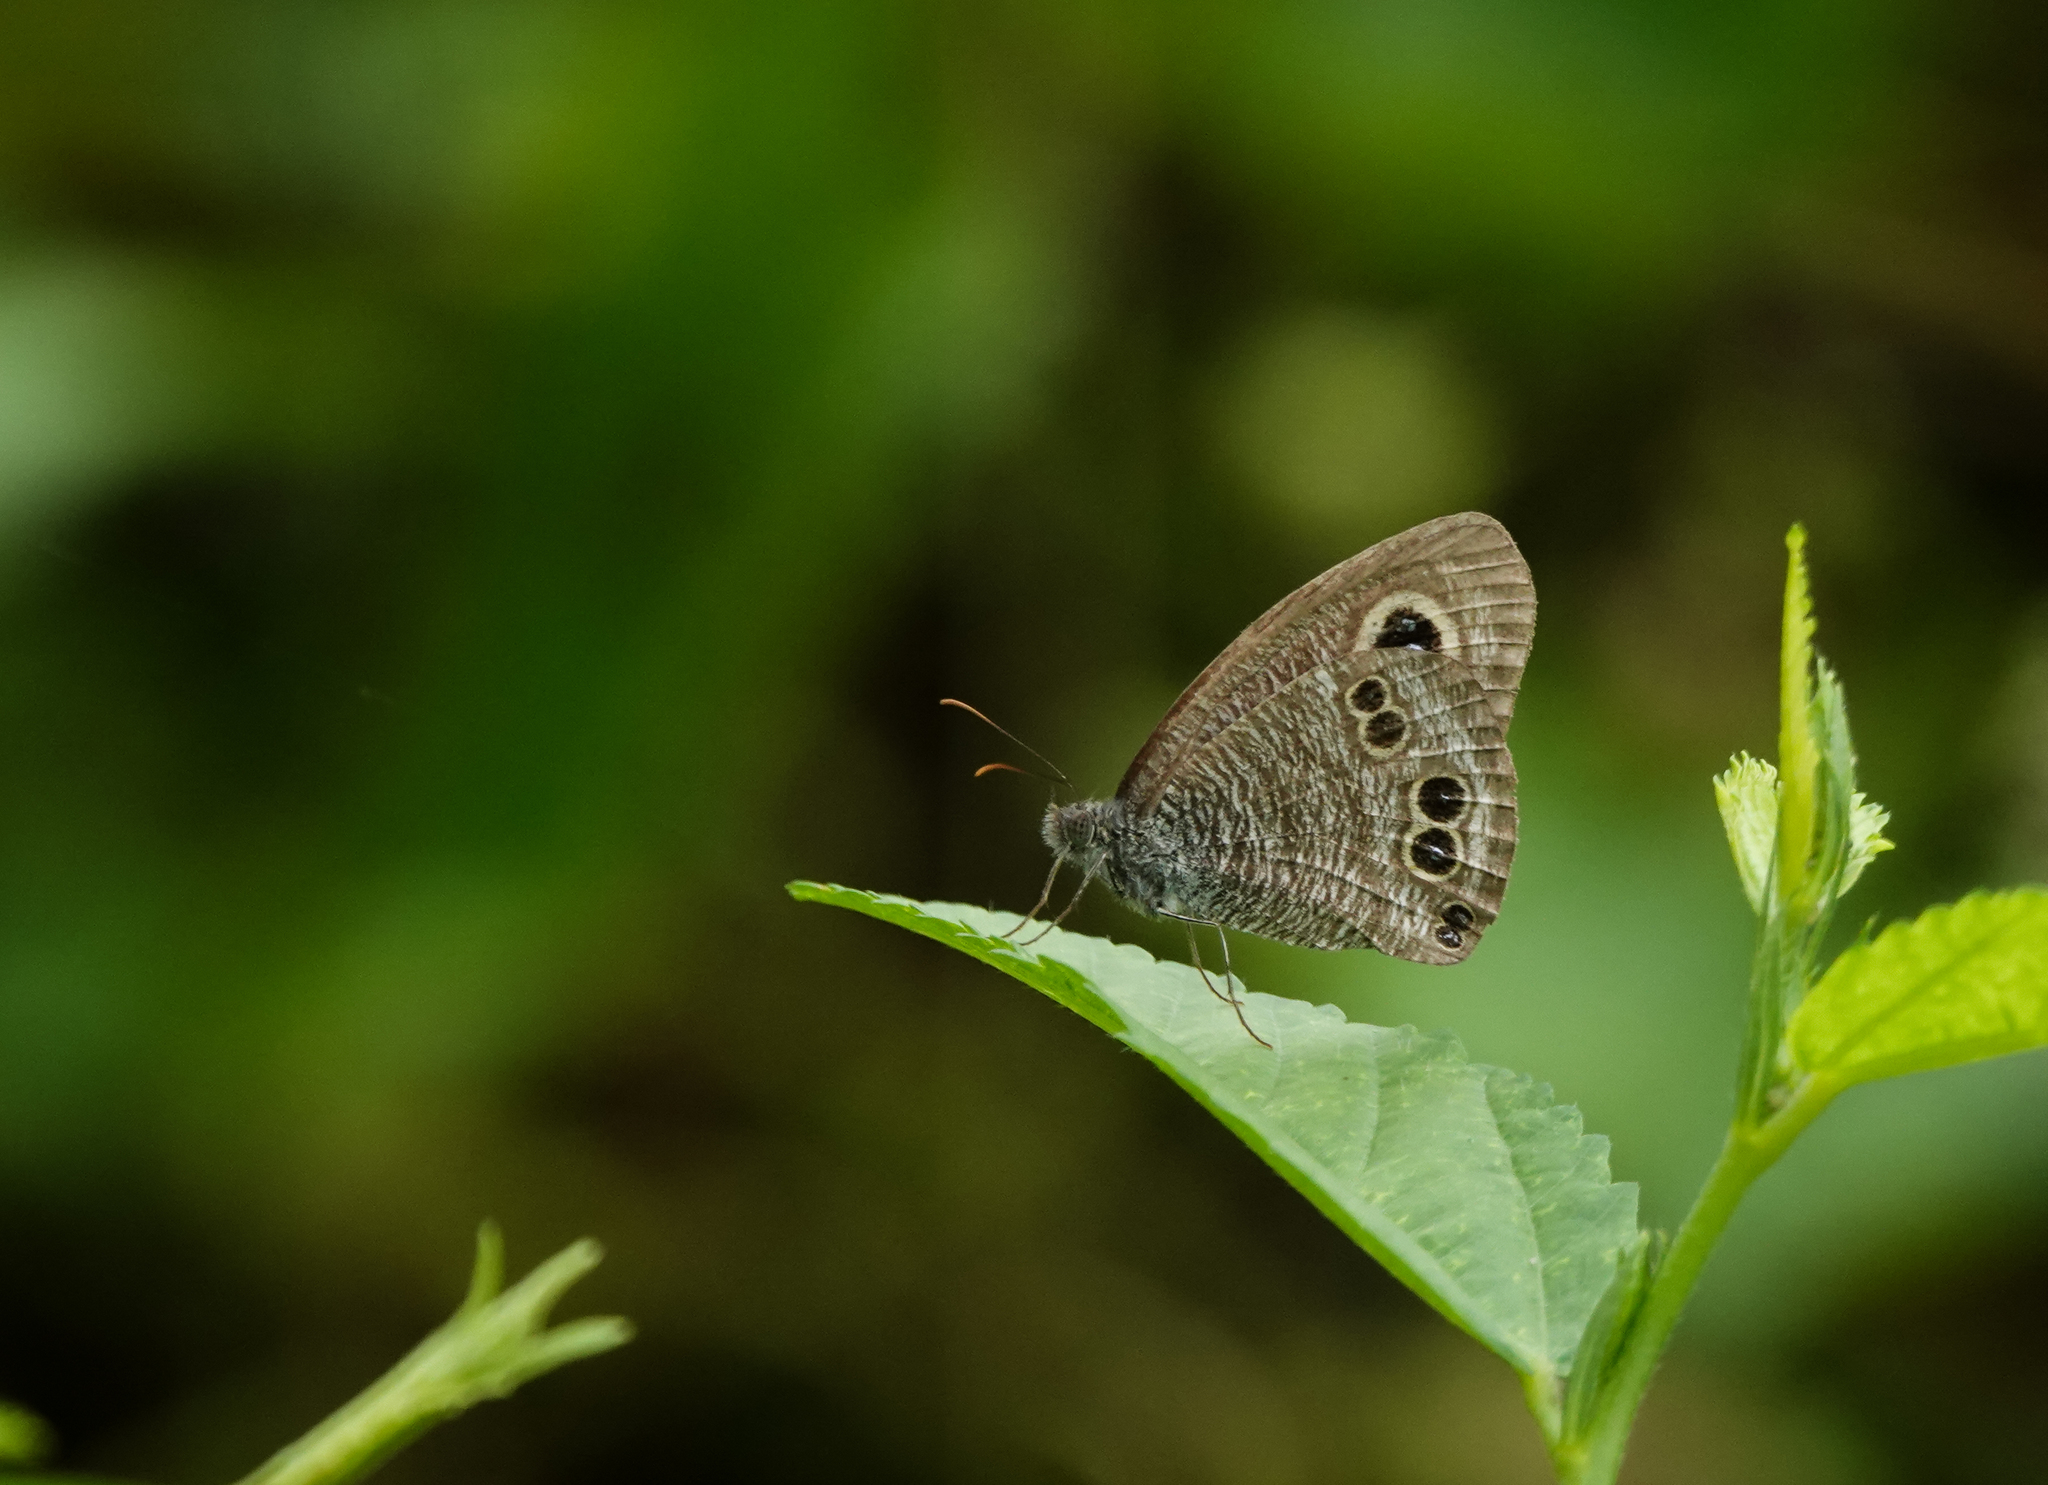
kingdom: Animalia
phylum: Arthropoda
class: Insecta
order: Lepidoptera
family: Nymphalidae
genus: Ypthima
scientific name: Ypthima baldus
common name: Common five-ring
